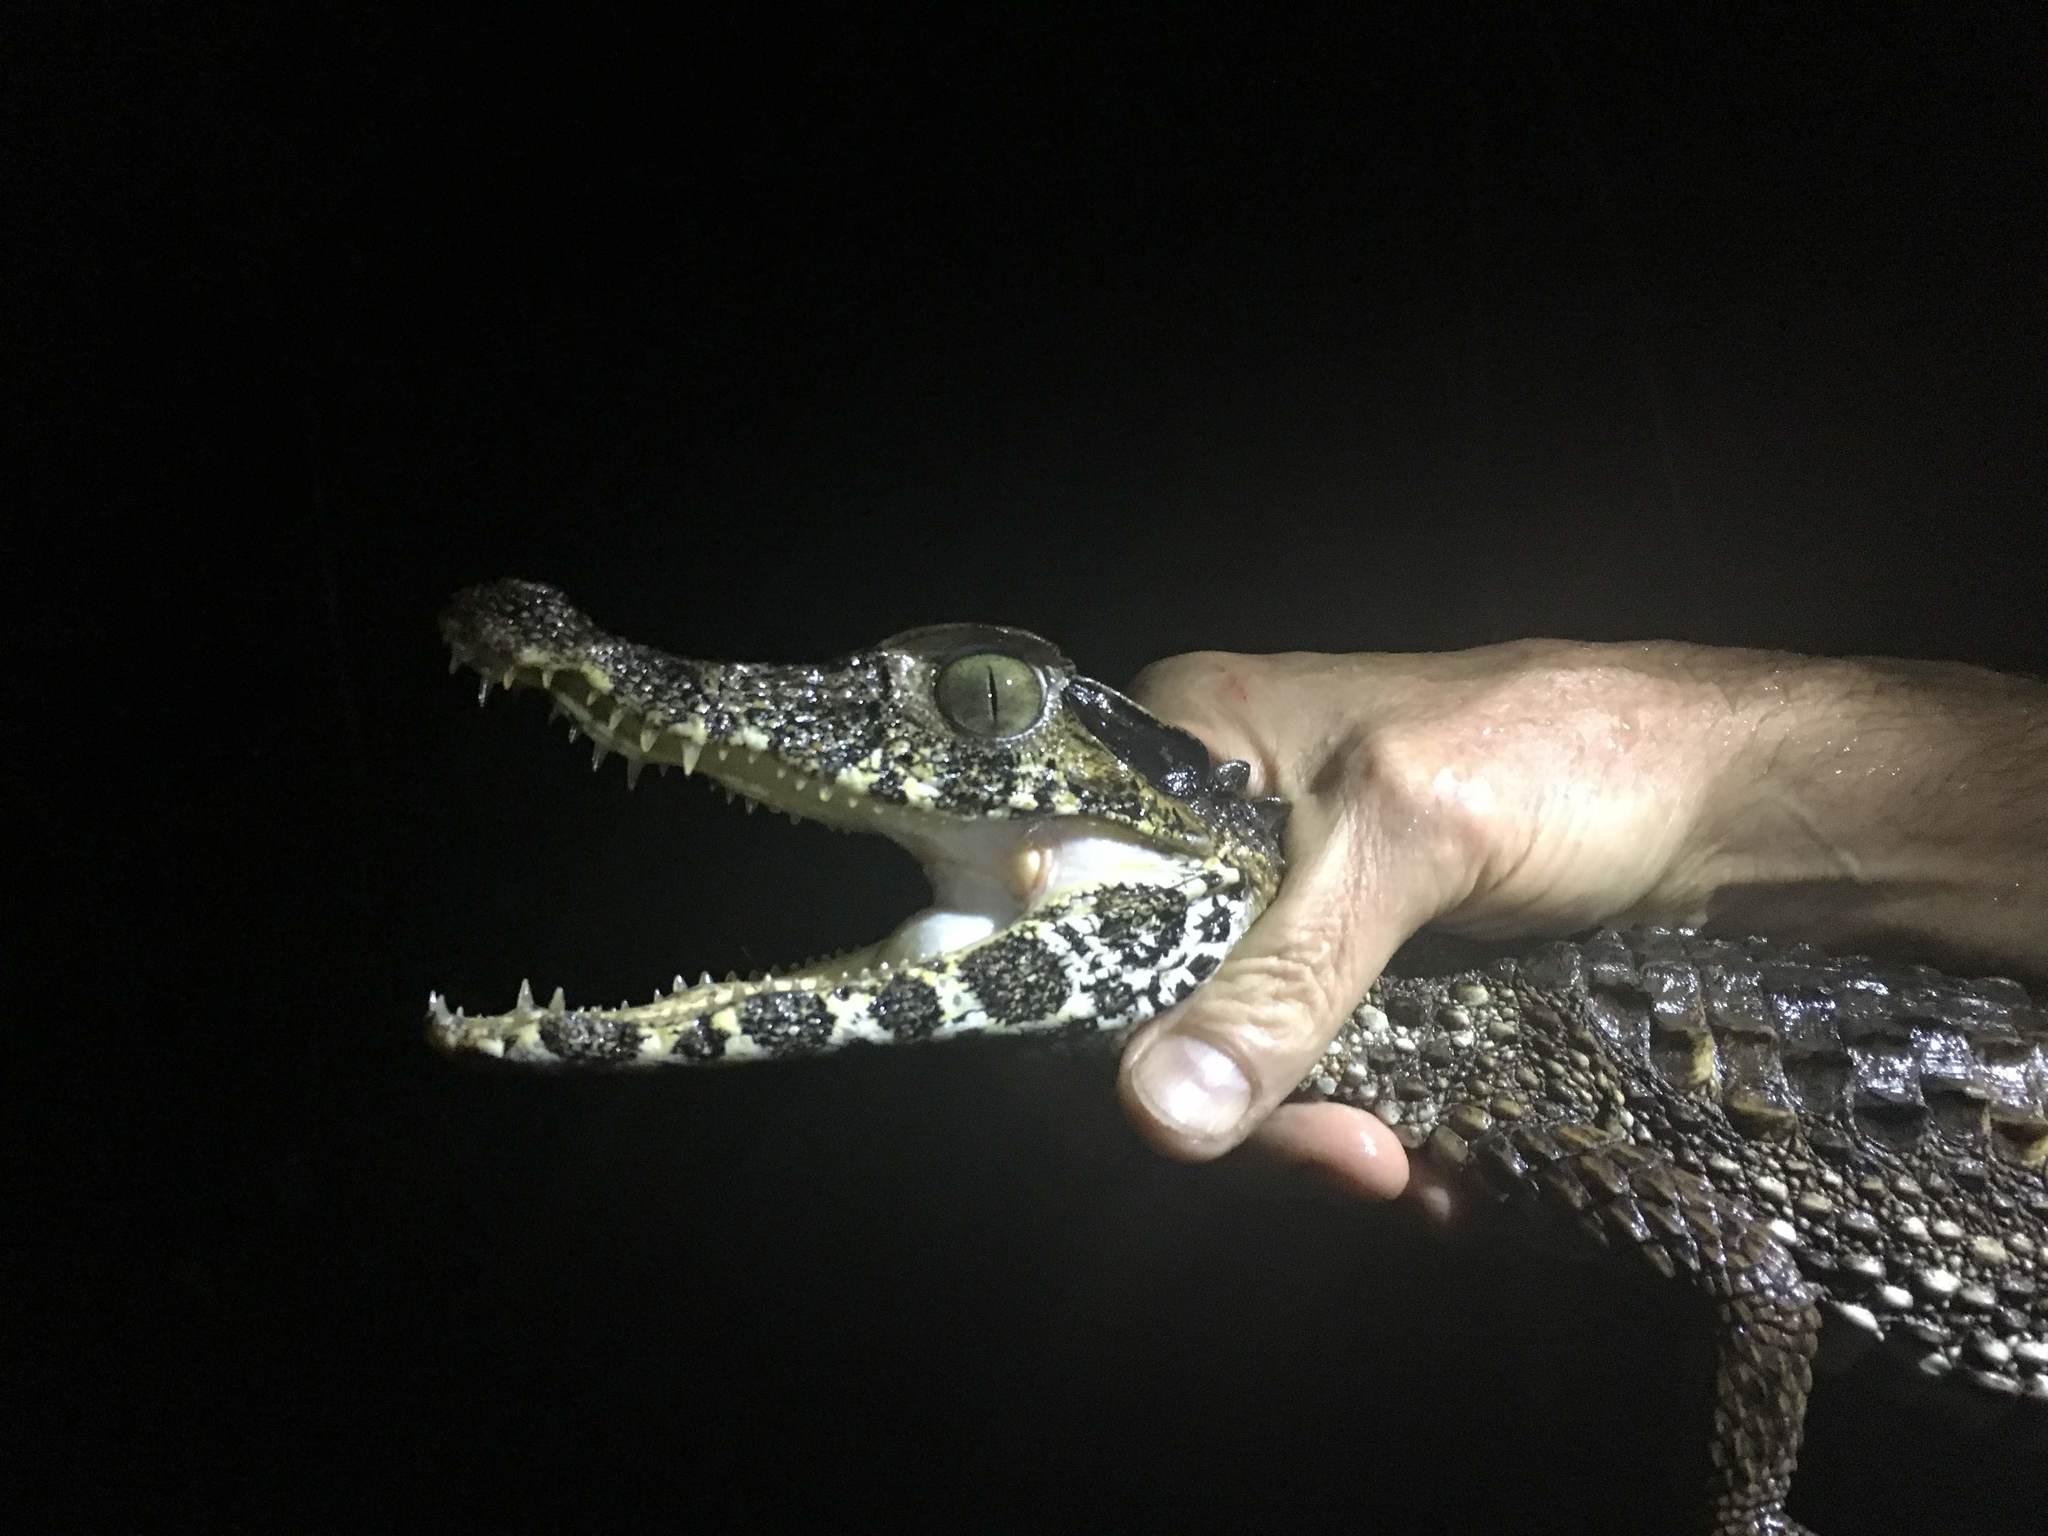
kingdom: Animalia
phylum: Chordata
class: Crocodylia
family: Alligatoridae
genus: Paleosuchus
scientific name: Paleosuchus trigonatus
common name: Schneider's smooth-fronted caiman
